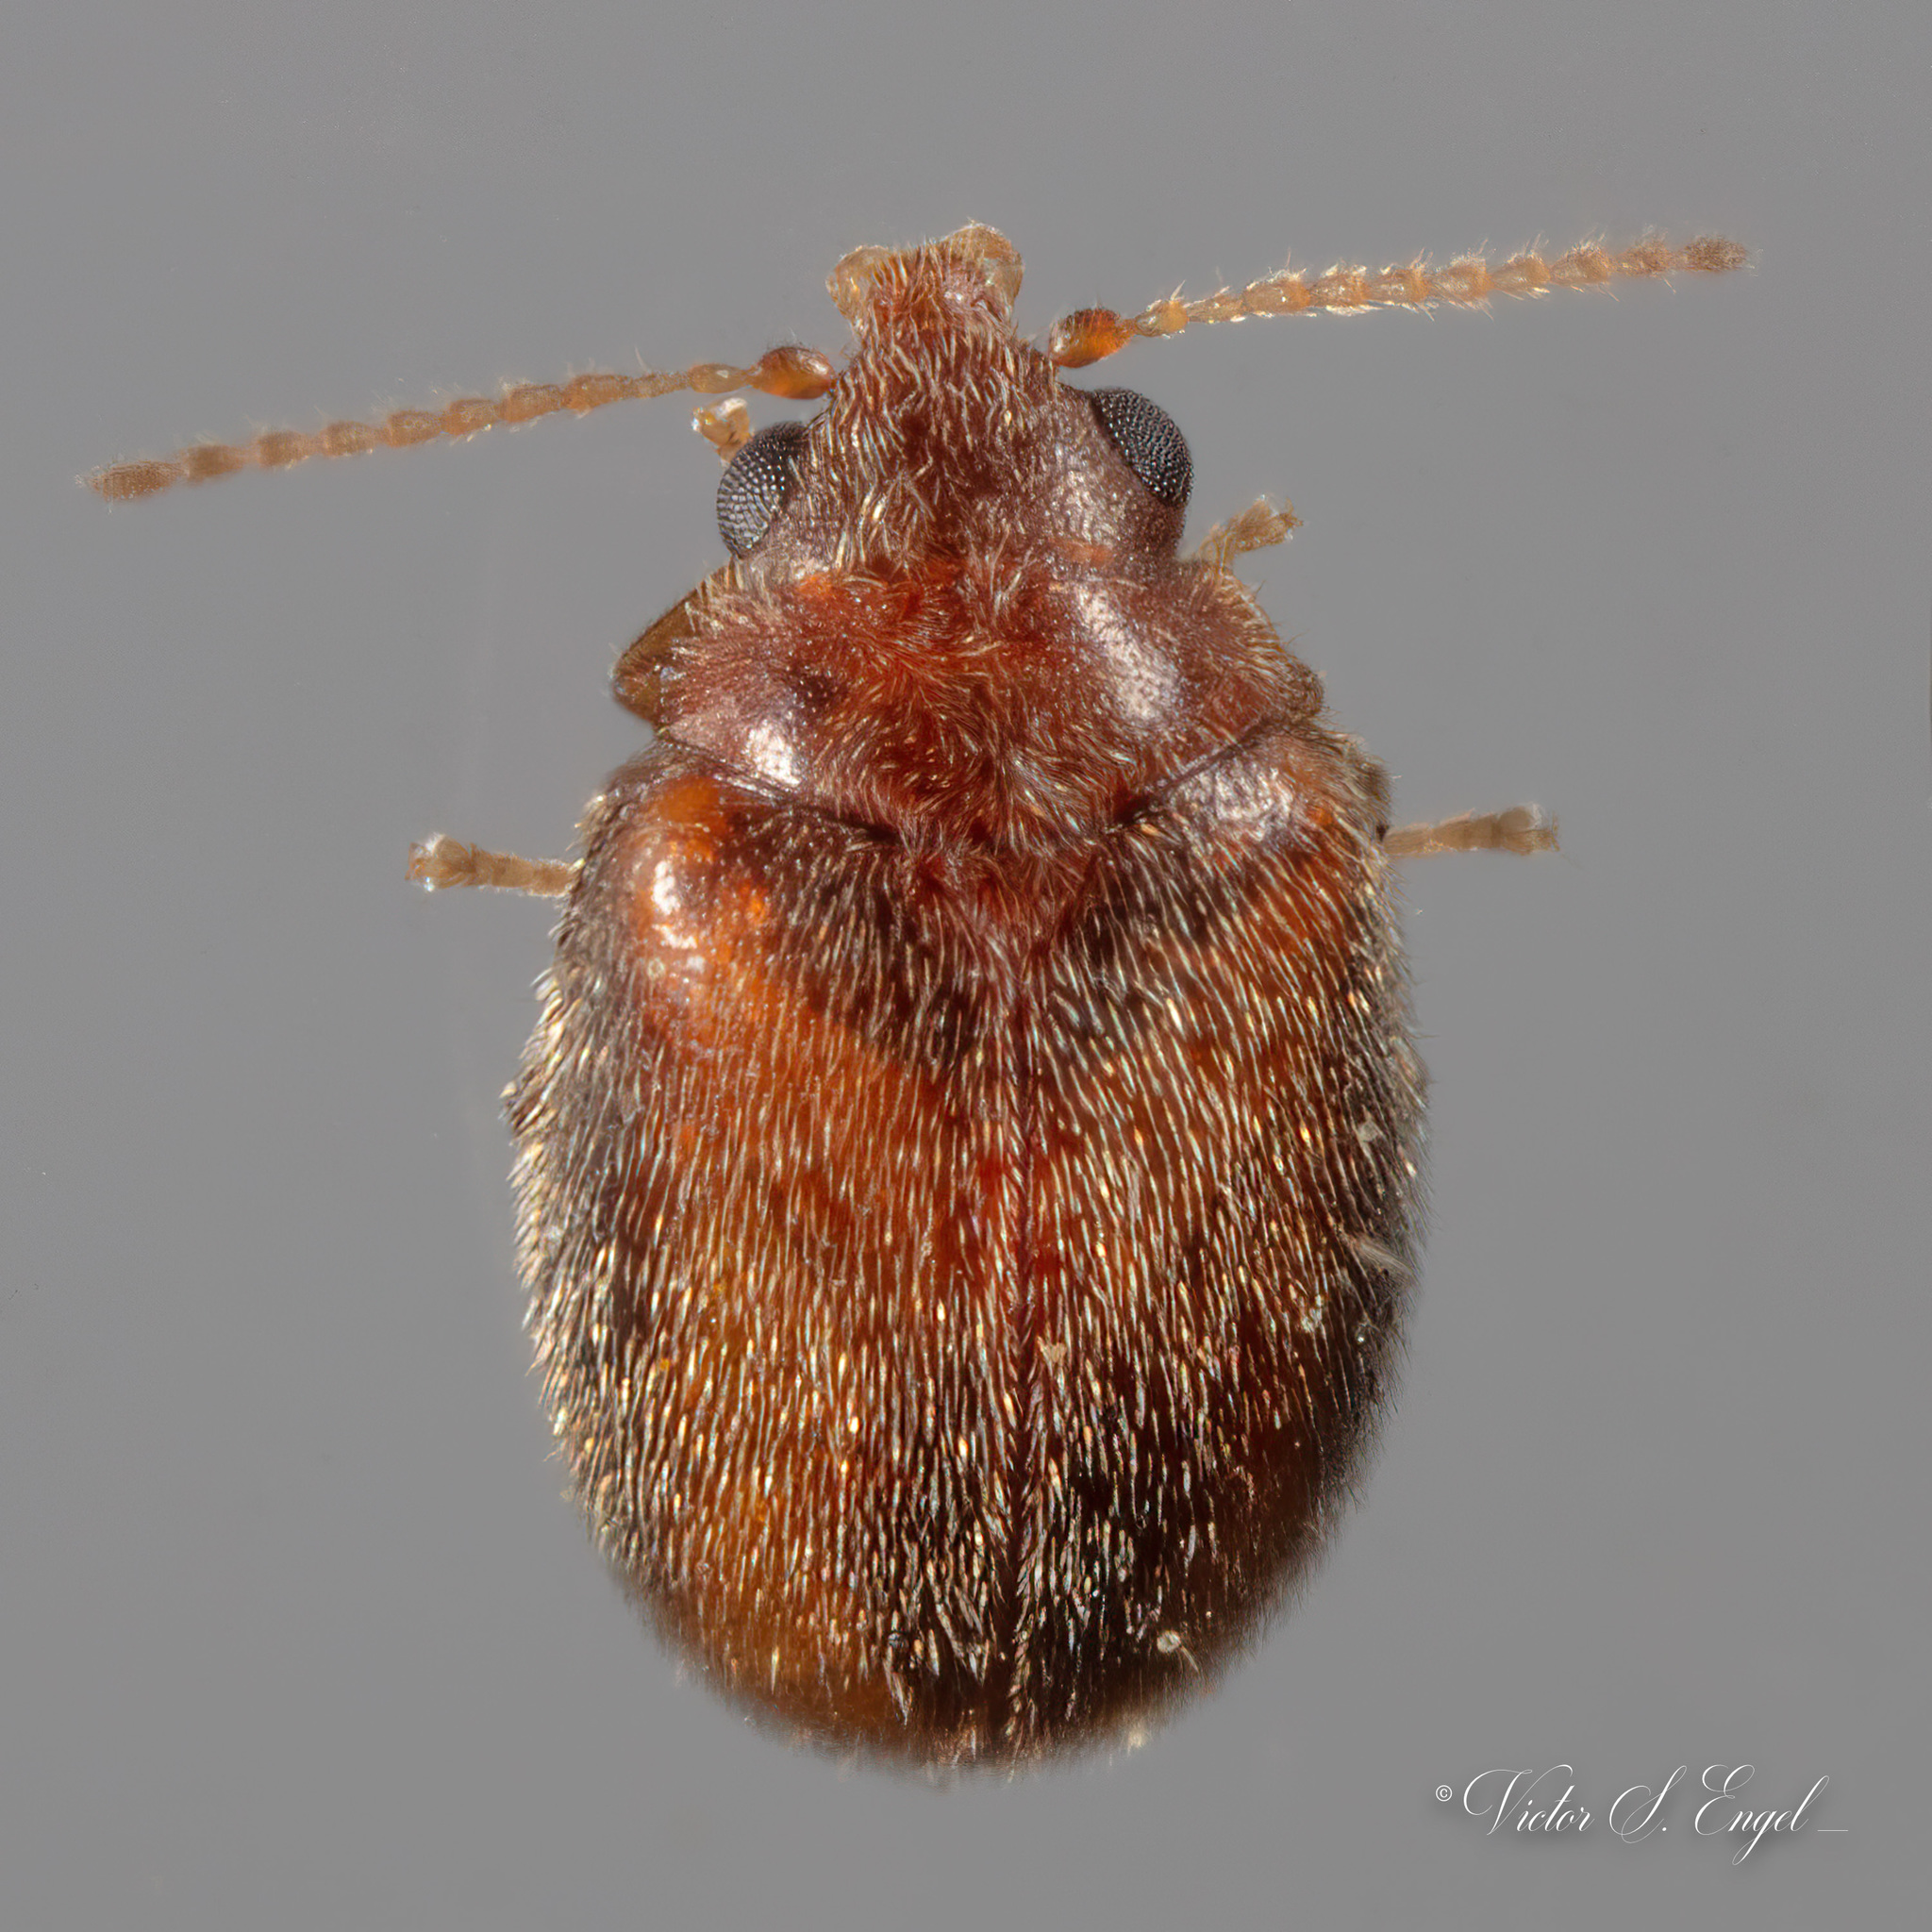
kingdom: Animalia
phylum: Arthropoda
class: Insecta
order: Coleoptera
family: Scirtidae
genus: Contacyphon
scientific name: Contacyphon
